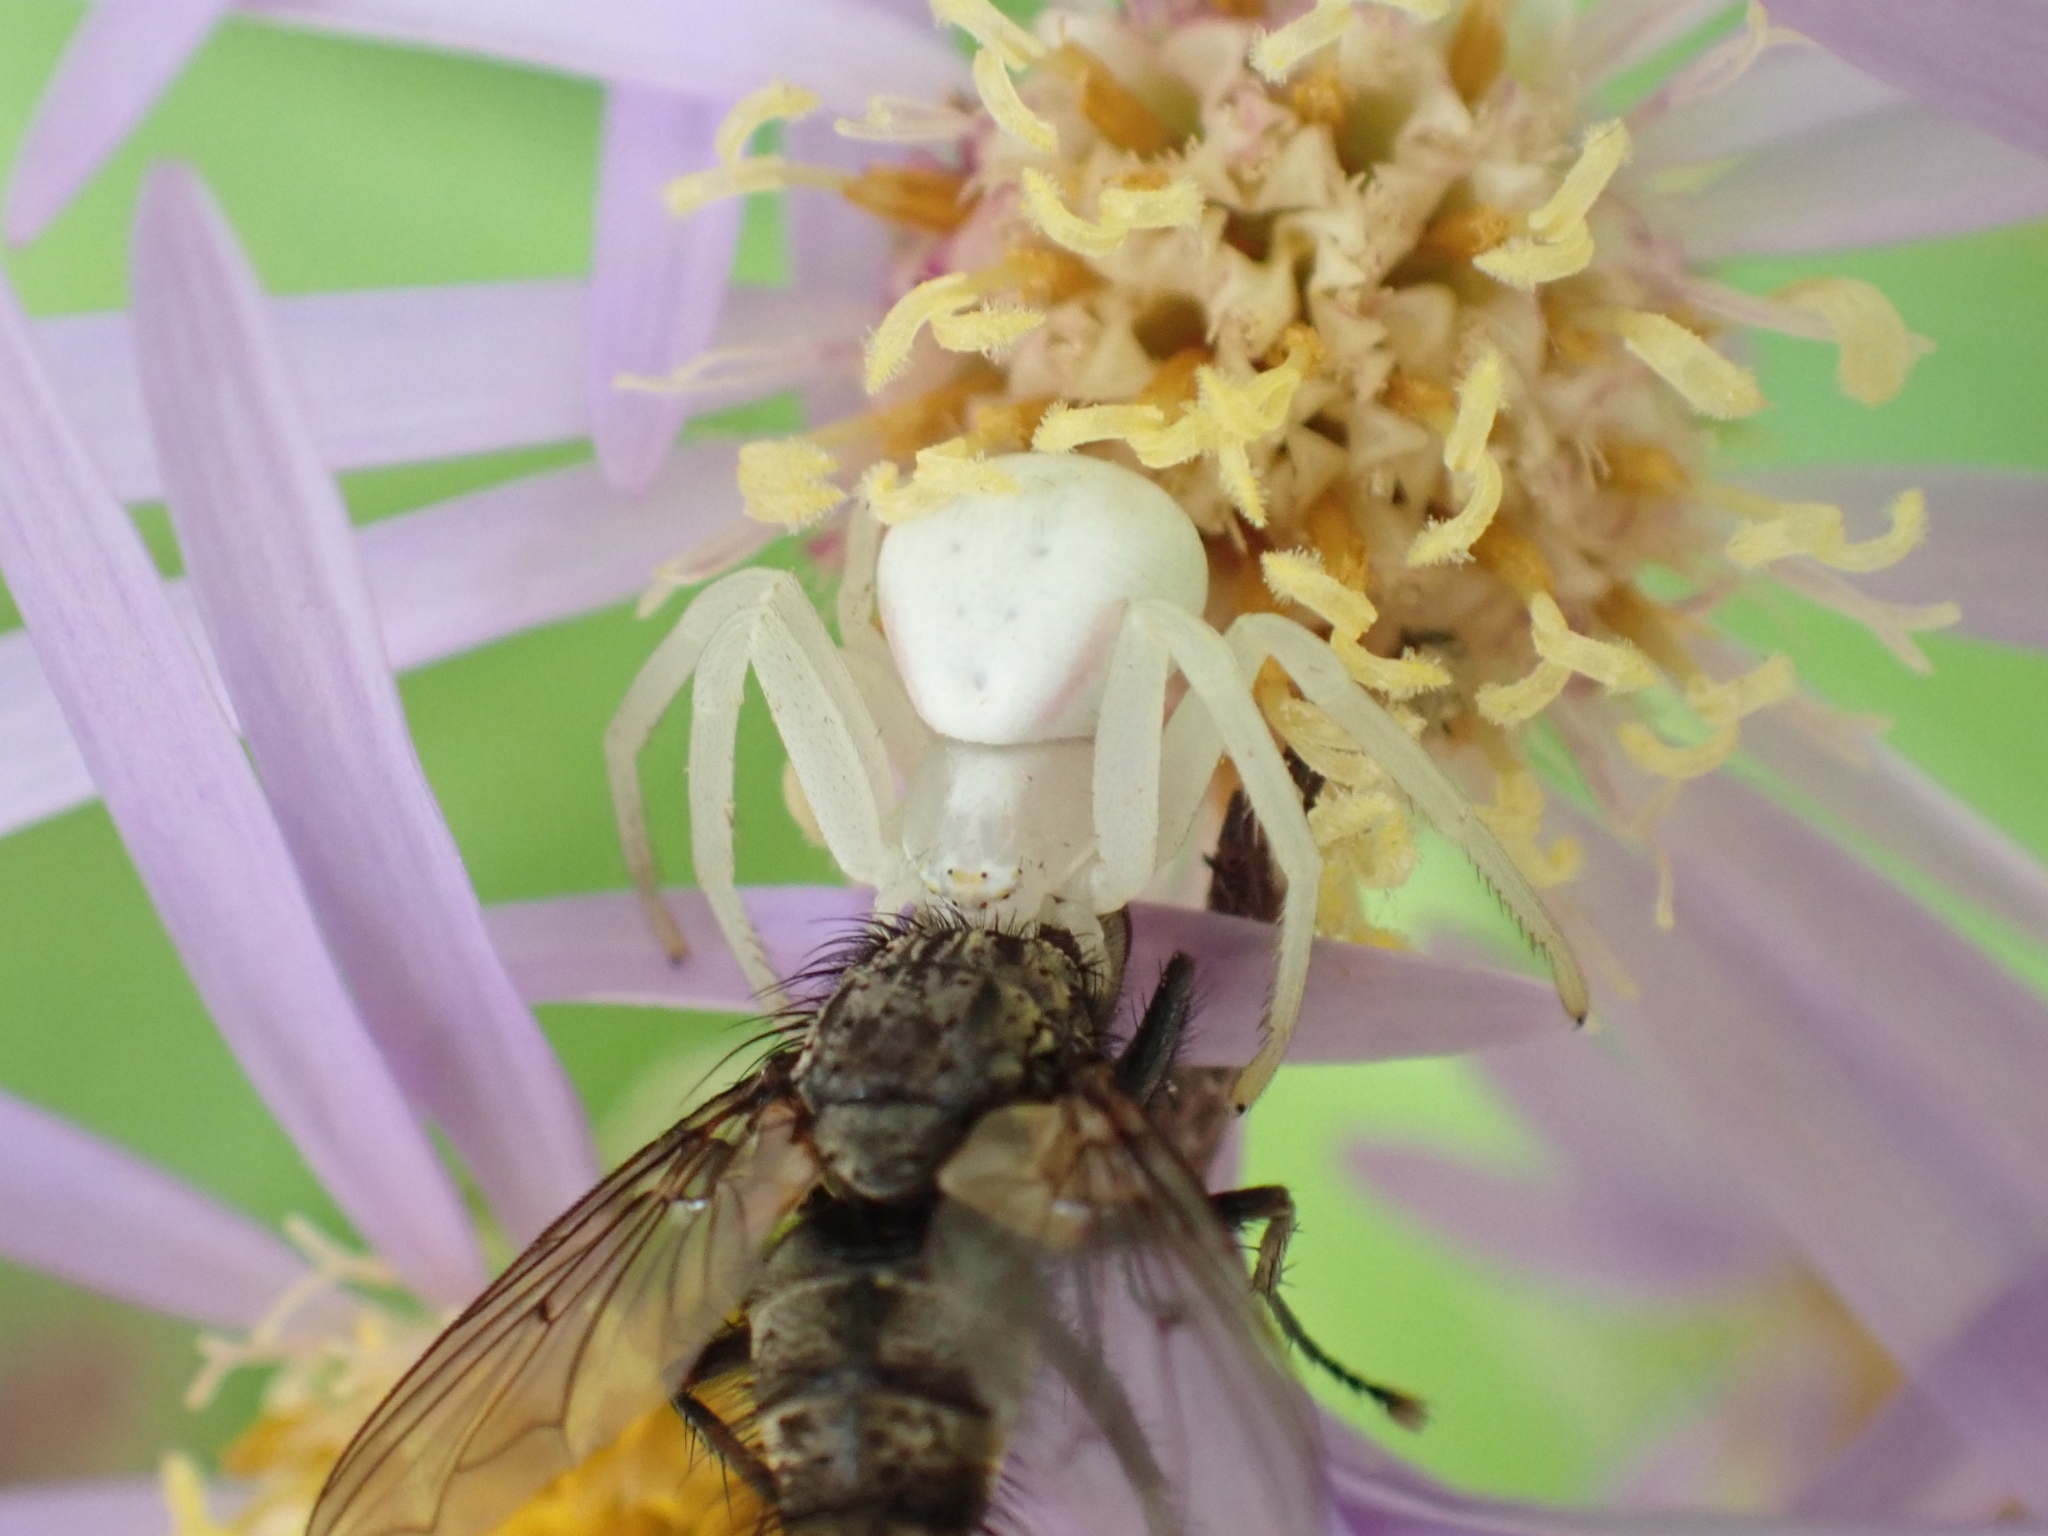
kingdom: Animalia
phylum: Arthropoda
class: Arachnida
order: Araneae
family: Thomisidae
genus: Misumena
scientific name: Misumena vatia
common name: Goldenrod crab spider
